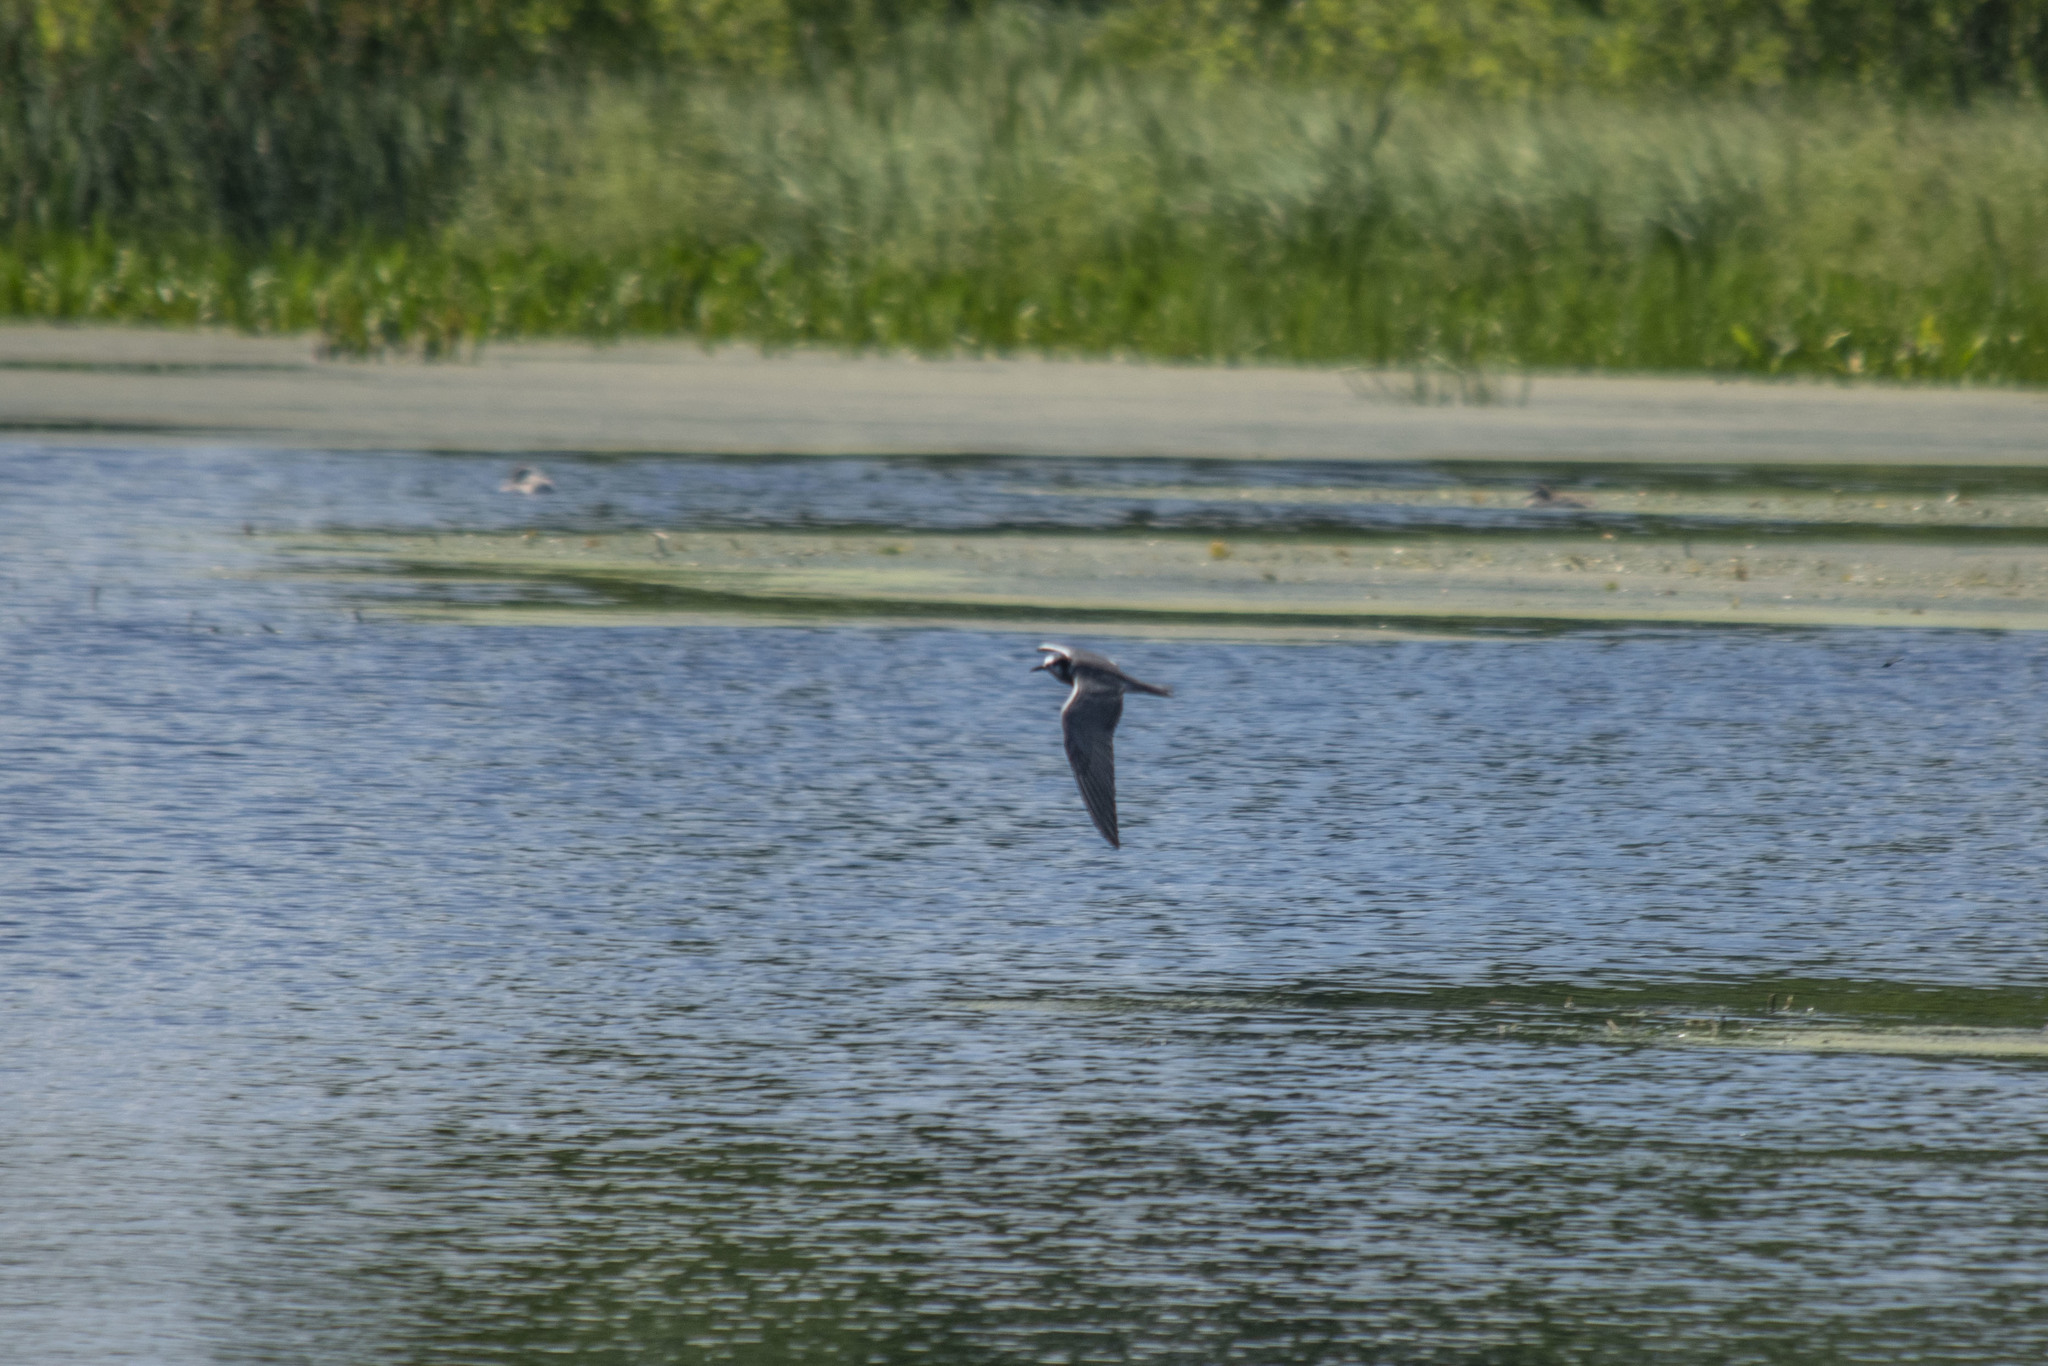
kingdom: Animalia
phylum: Chordata
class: Aves
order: Charadriiformes
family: Laridae
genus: Chlidonias
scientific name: Chlidonias niger
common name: Black tern
